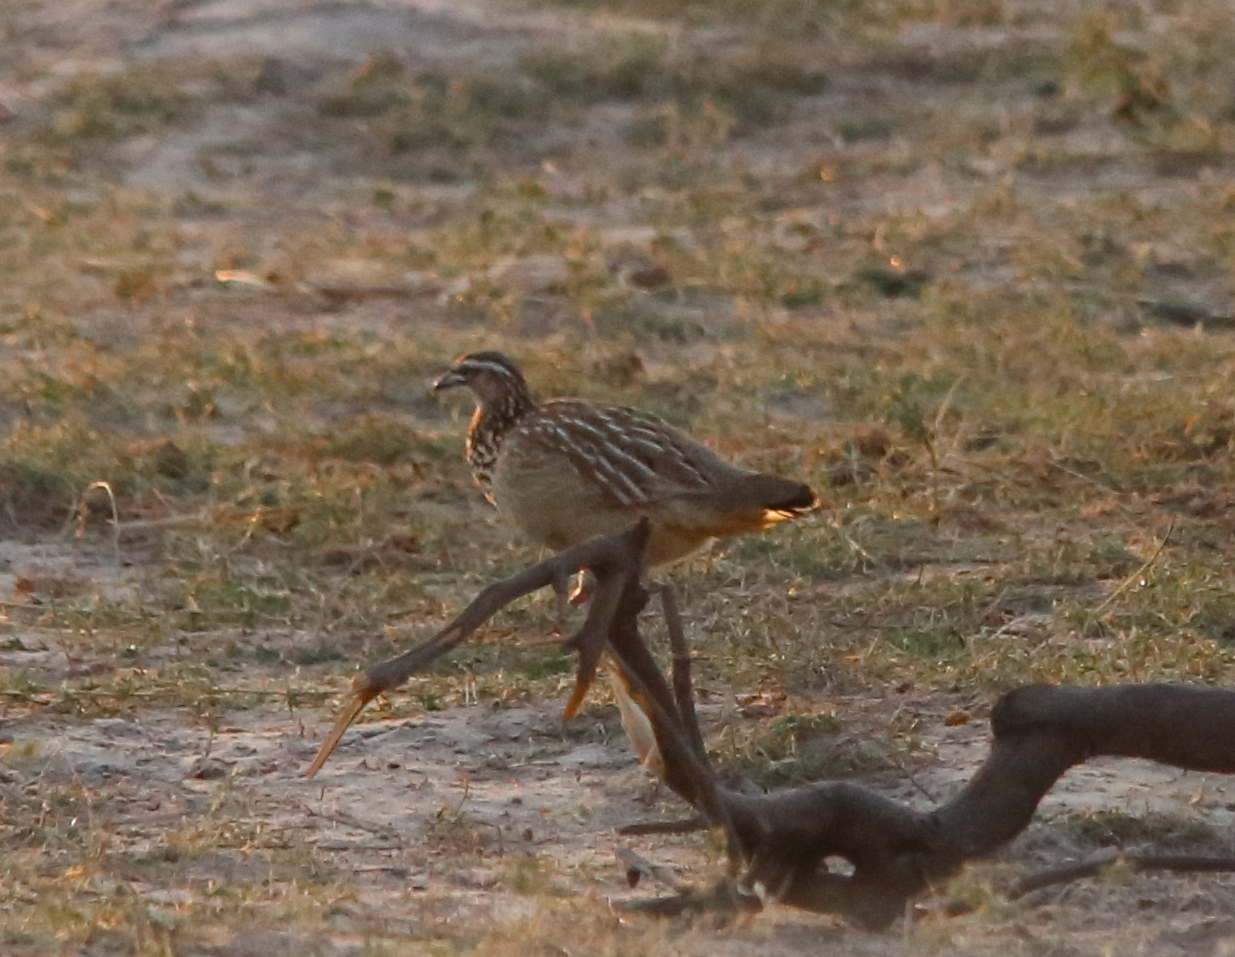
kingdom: Animalia
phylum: Chordata
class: Aves
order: Galliformes
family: Phasianidae
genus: Ortygornis
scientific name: Ortygornis sephaena
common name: Crested francolin
